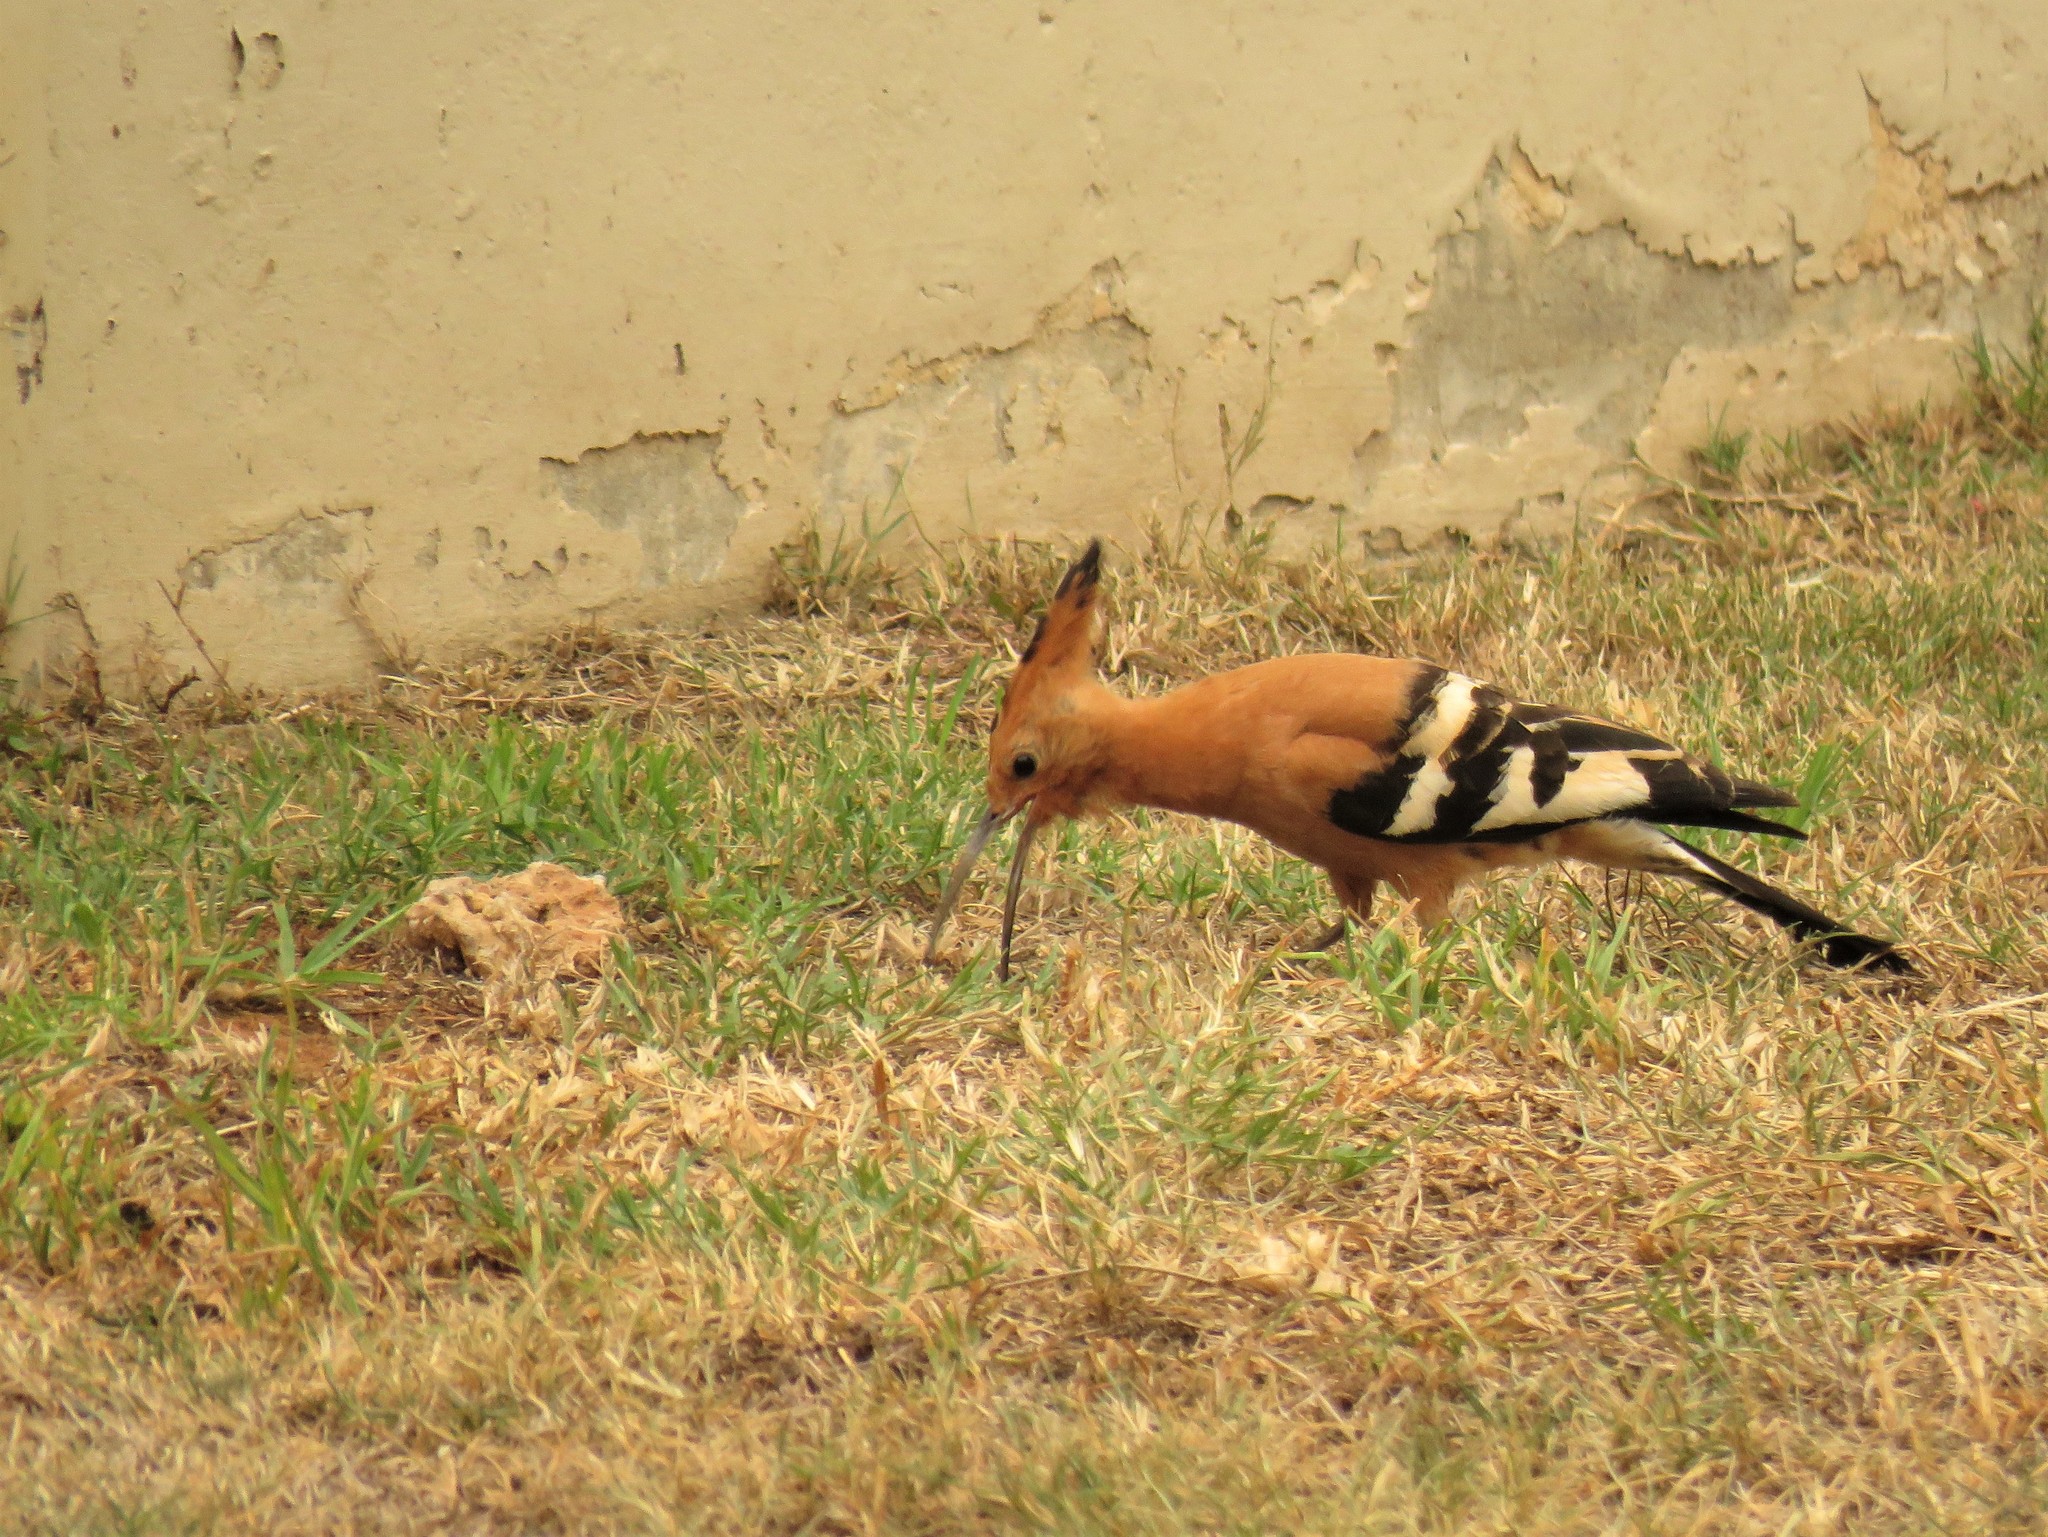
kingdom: Animalia
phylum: Chordata
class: Aves
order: Bucerotiformes
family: Upupidae
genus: Upupa
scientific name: Upupa africana
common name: African hoopoe
